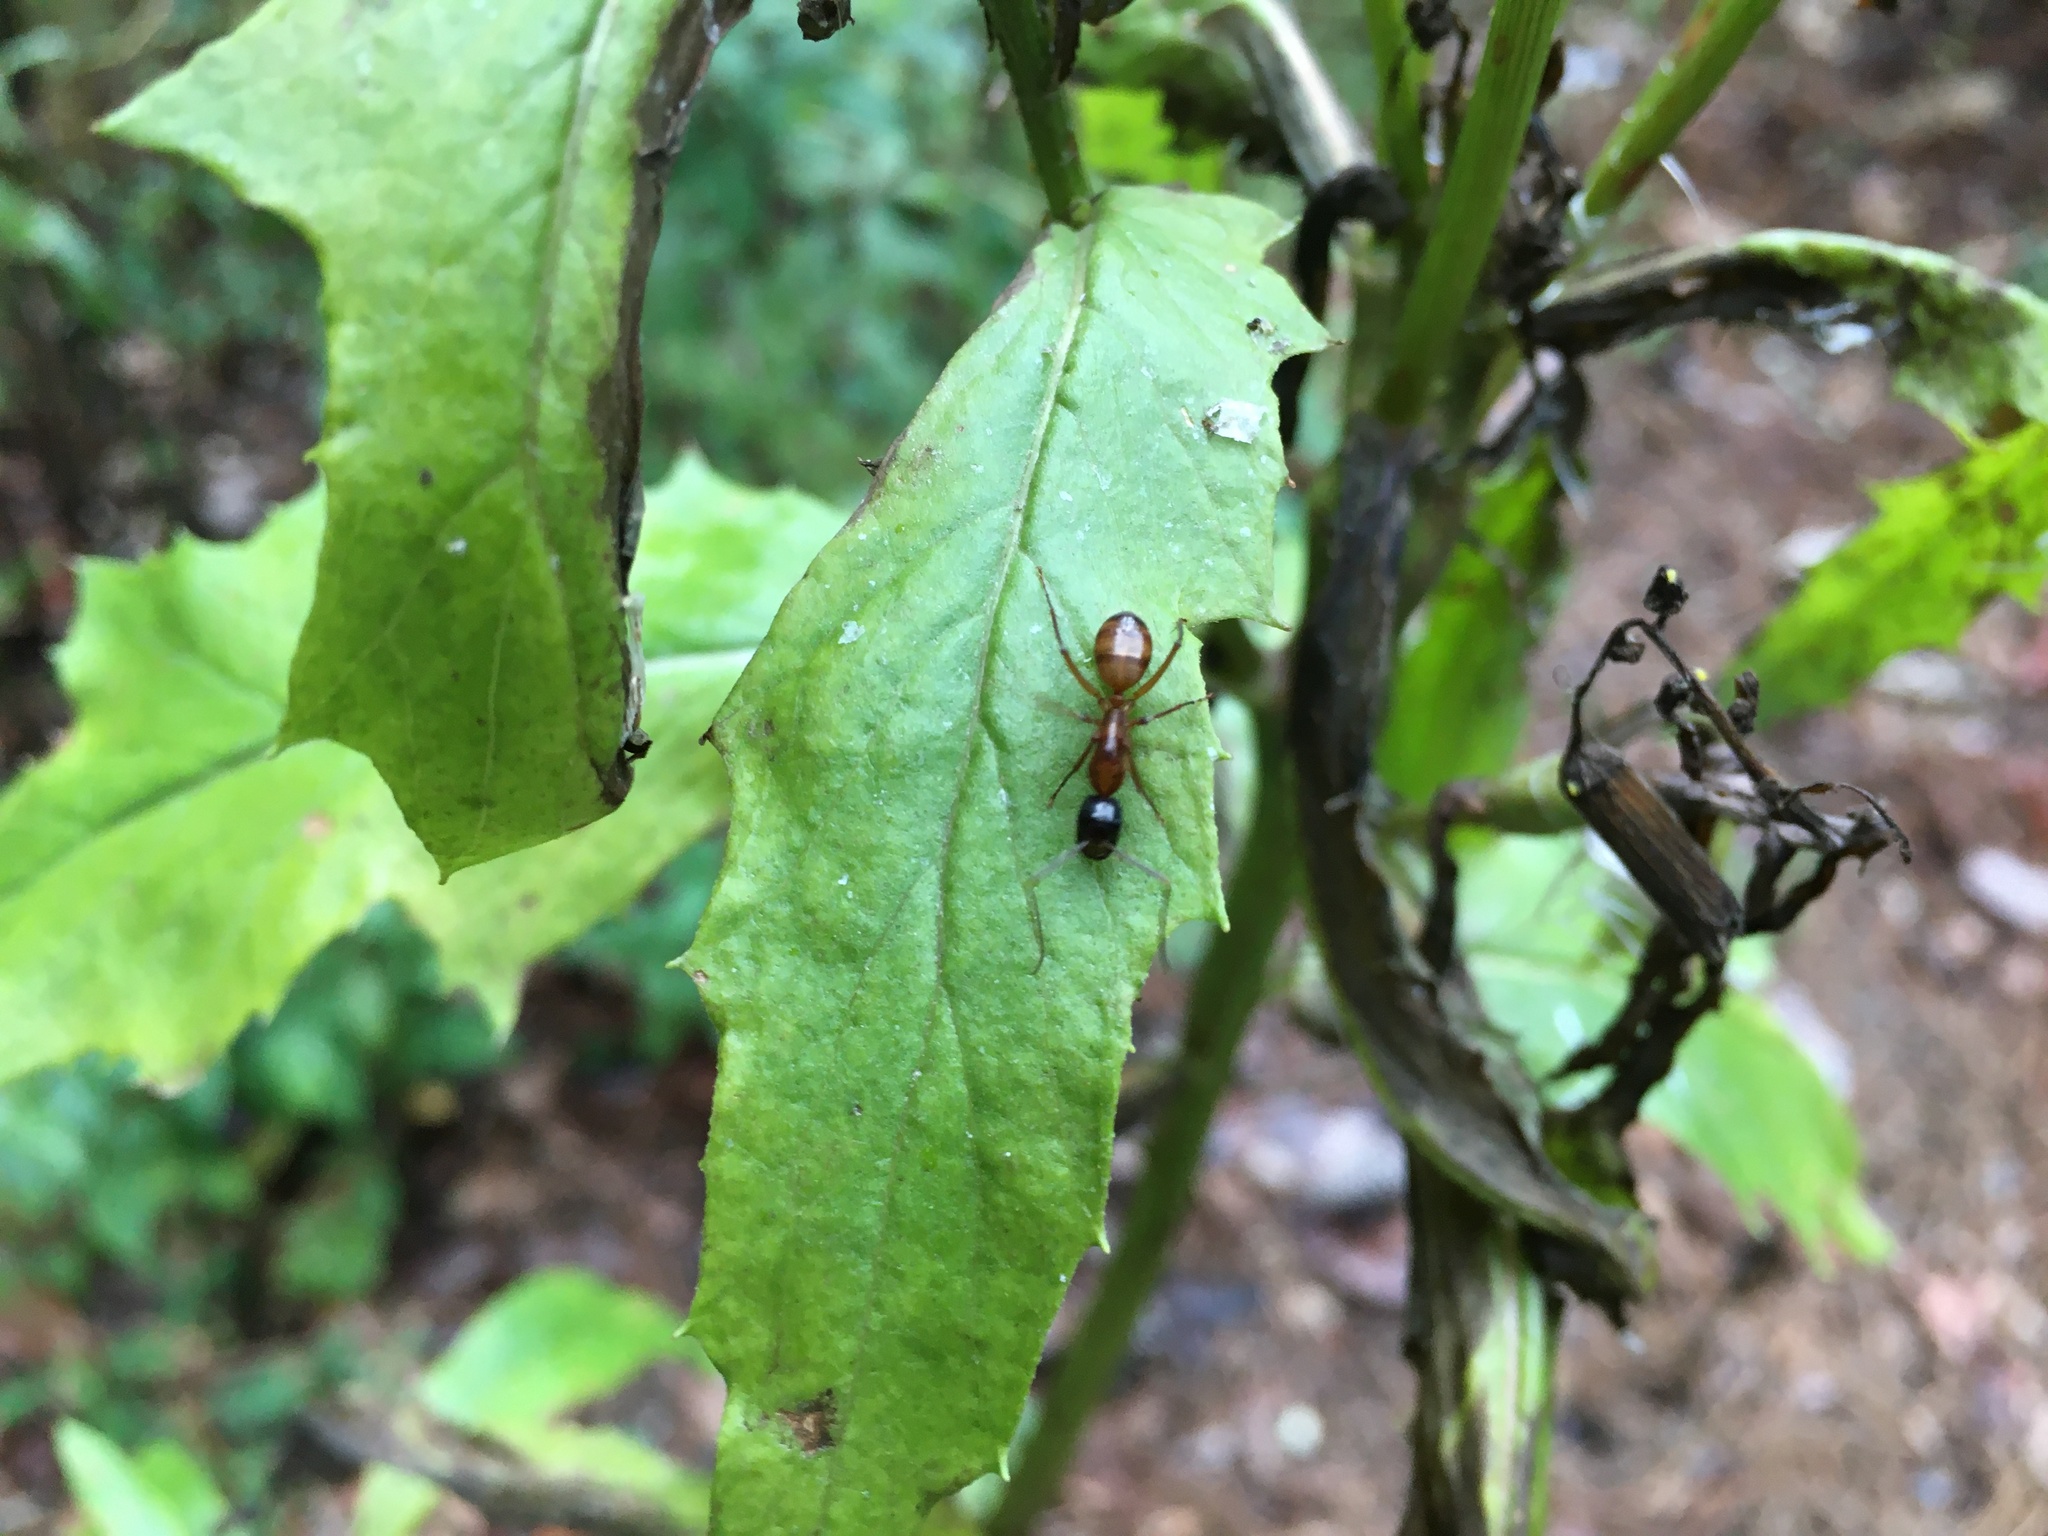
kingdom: Animalia
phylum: Arthropoda
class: Insecta
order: Hymenoptera
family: Formicidae
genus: Camponotus
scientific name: Camponotus americanus
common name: American carpenter ant
